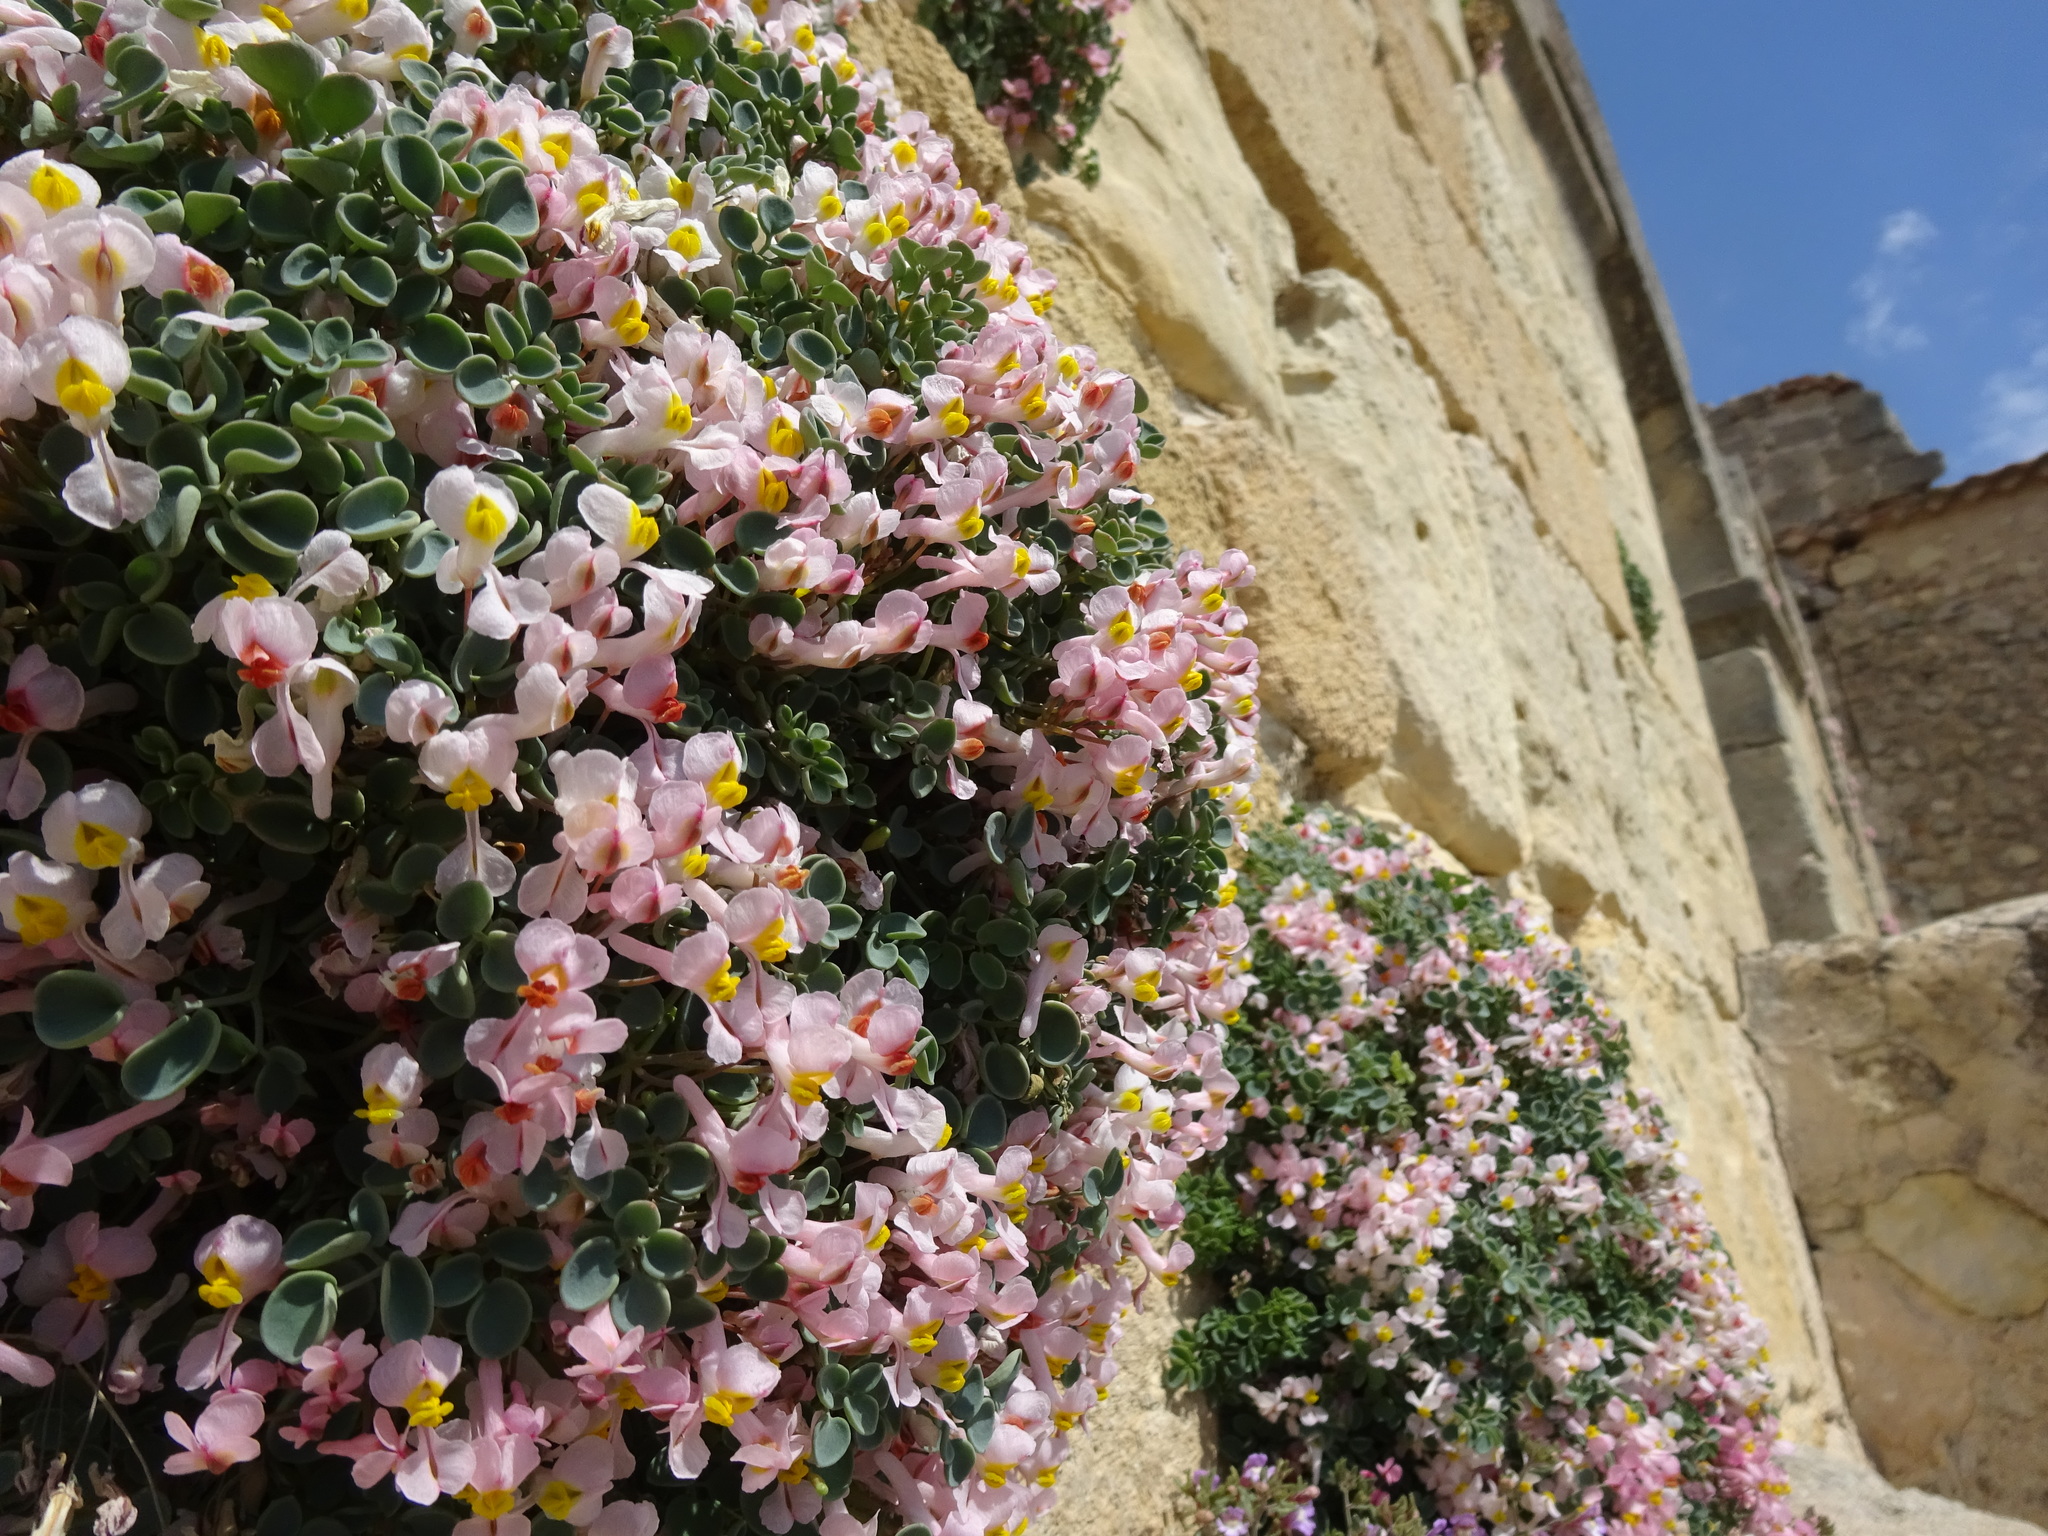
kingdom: Plantae
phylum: Tracheophyta
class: Magnoliopsida
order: Ranunculales
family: Papaveraceae
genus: Sarcocapnos
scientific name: Sarcocapnos enneaphylla
